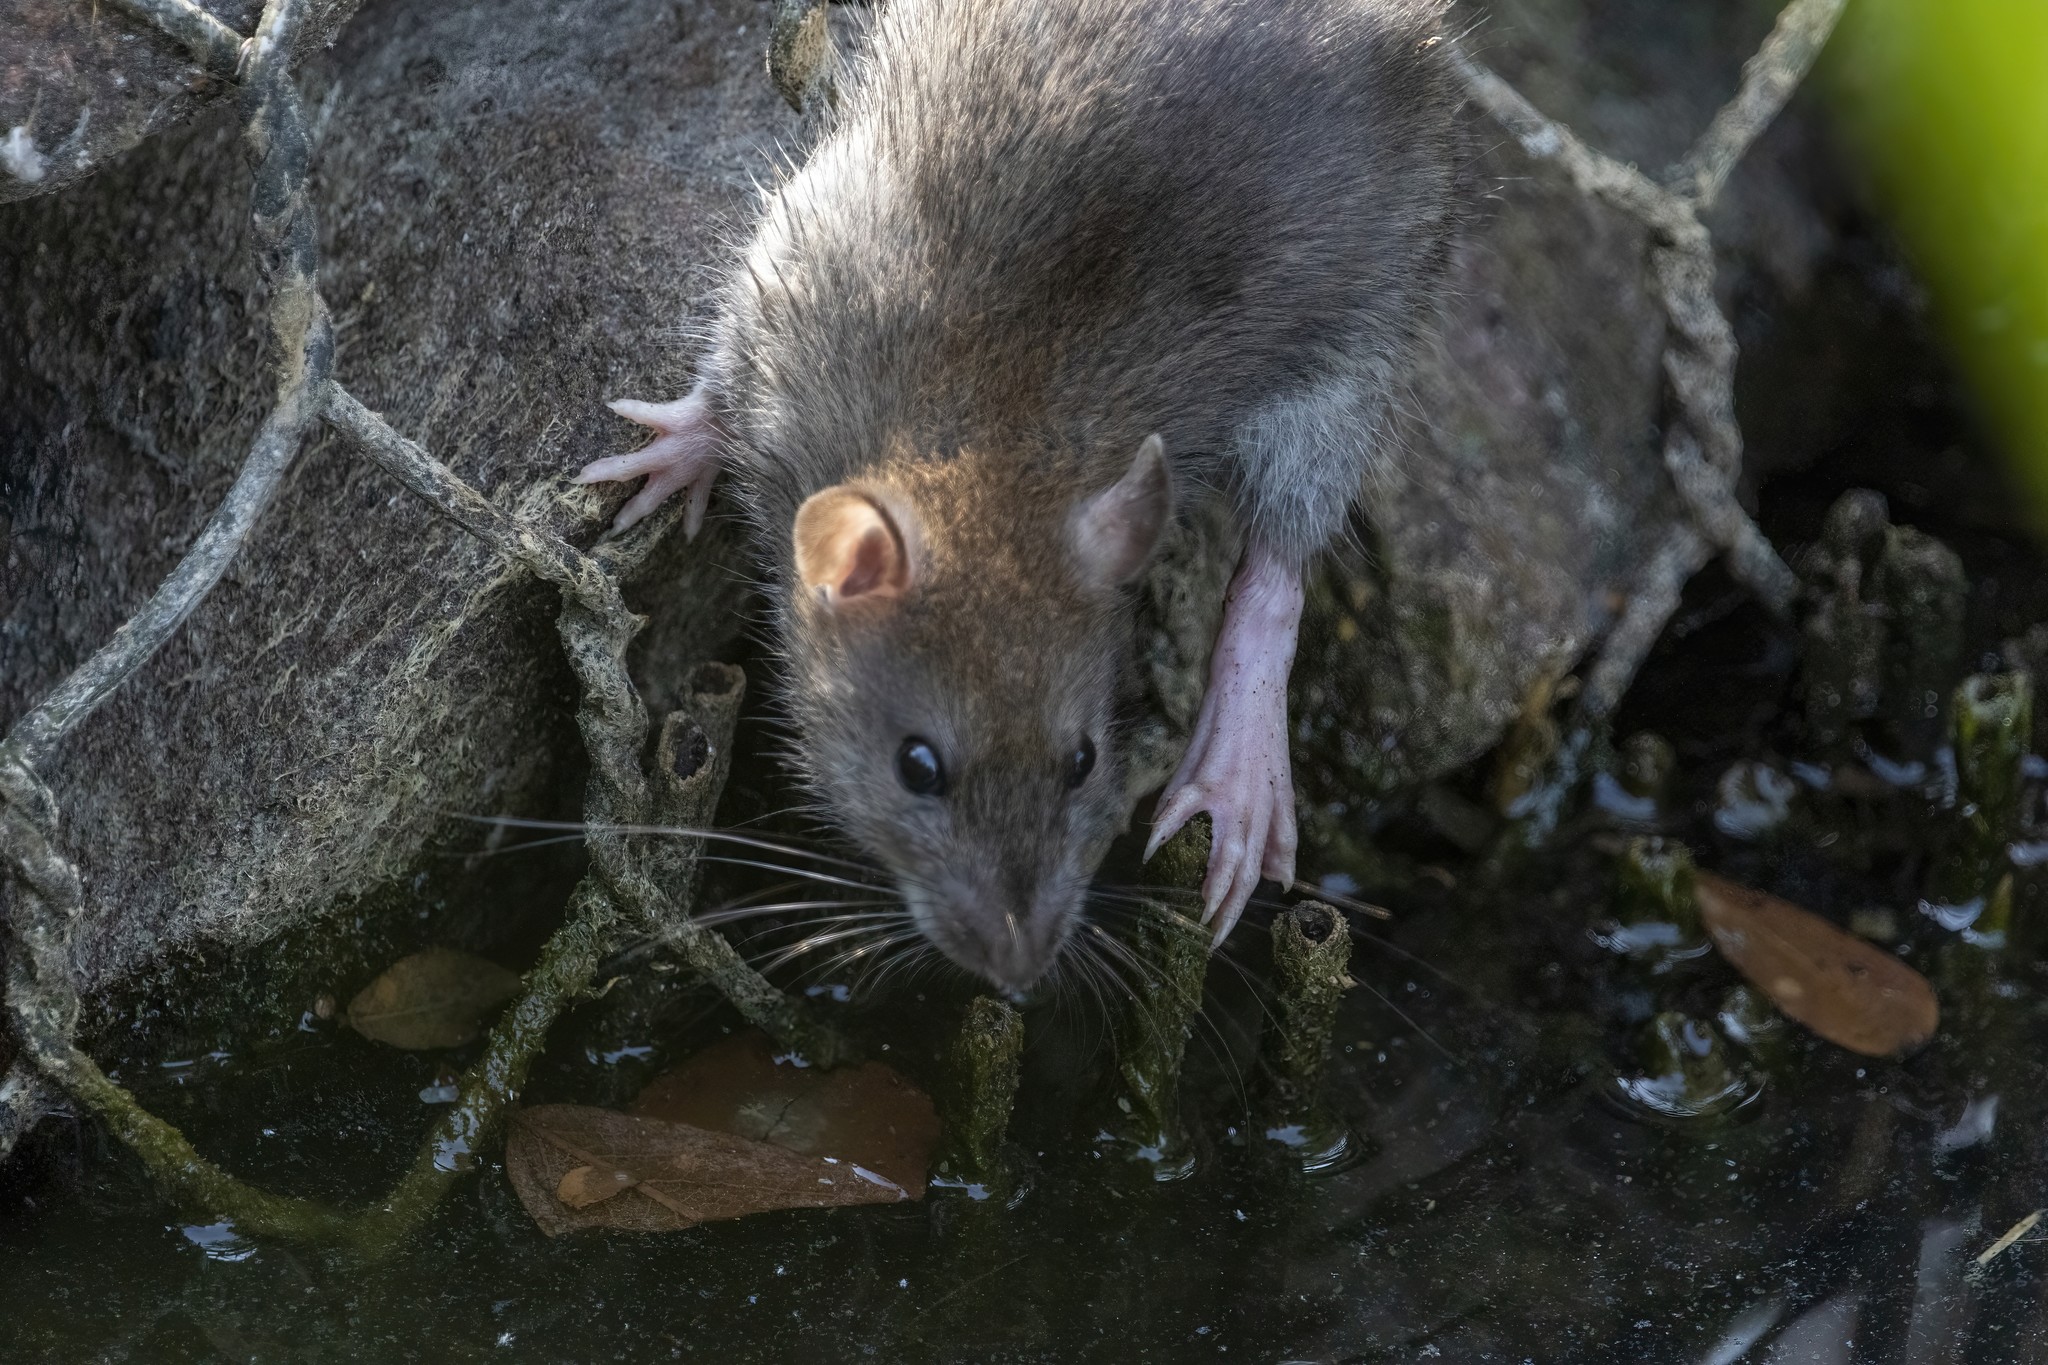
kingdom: Animalia
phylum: Chordata
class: Mammalia
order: Rodentia
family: Muridae
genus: Rattus
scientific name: Rattus norvegicus
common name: Brown rat
